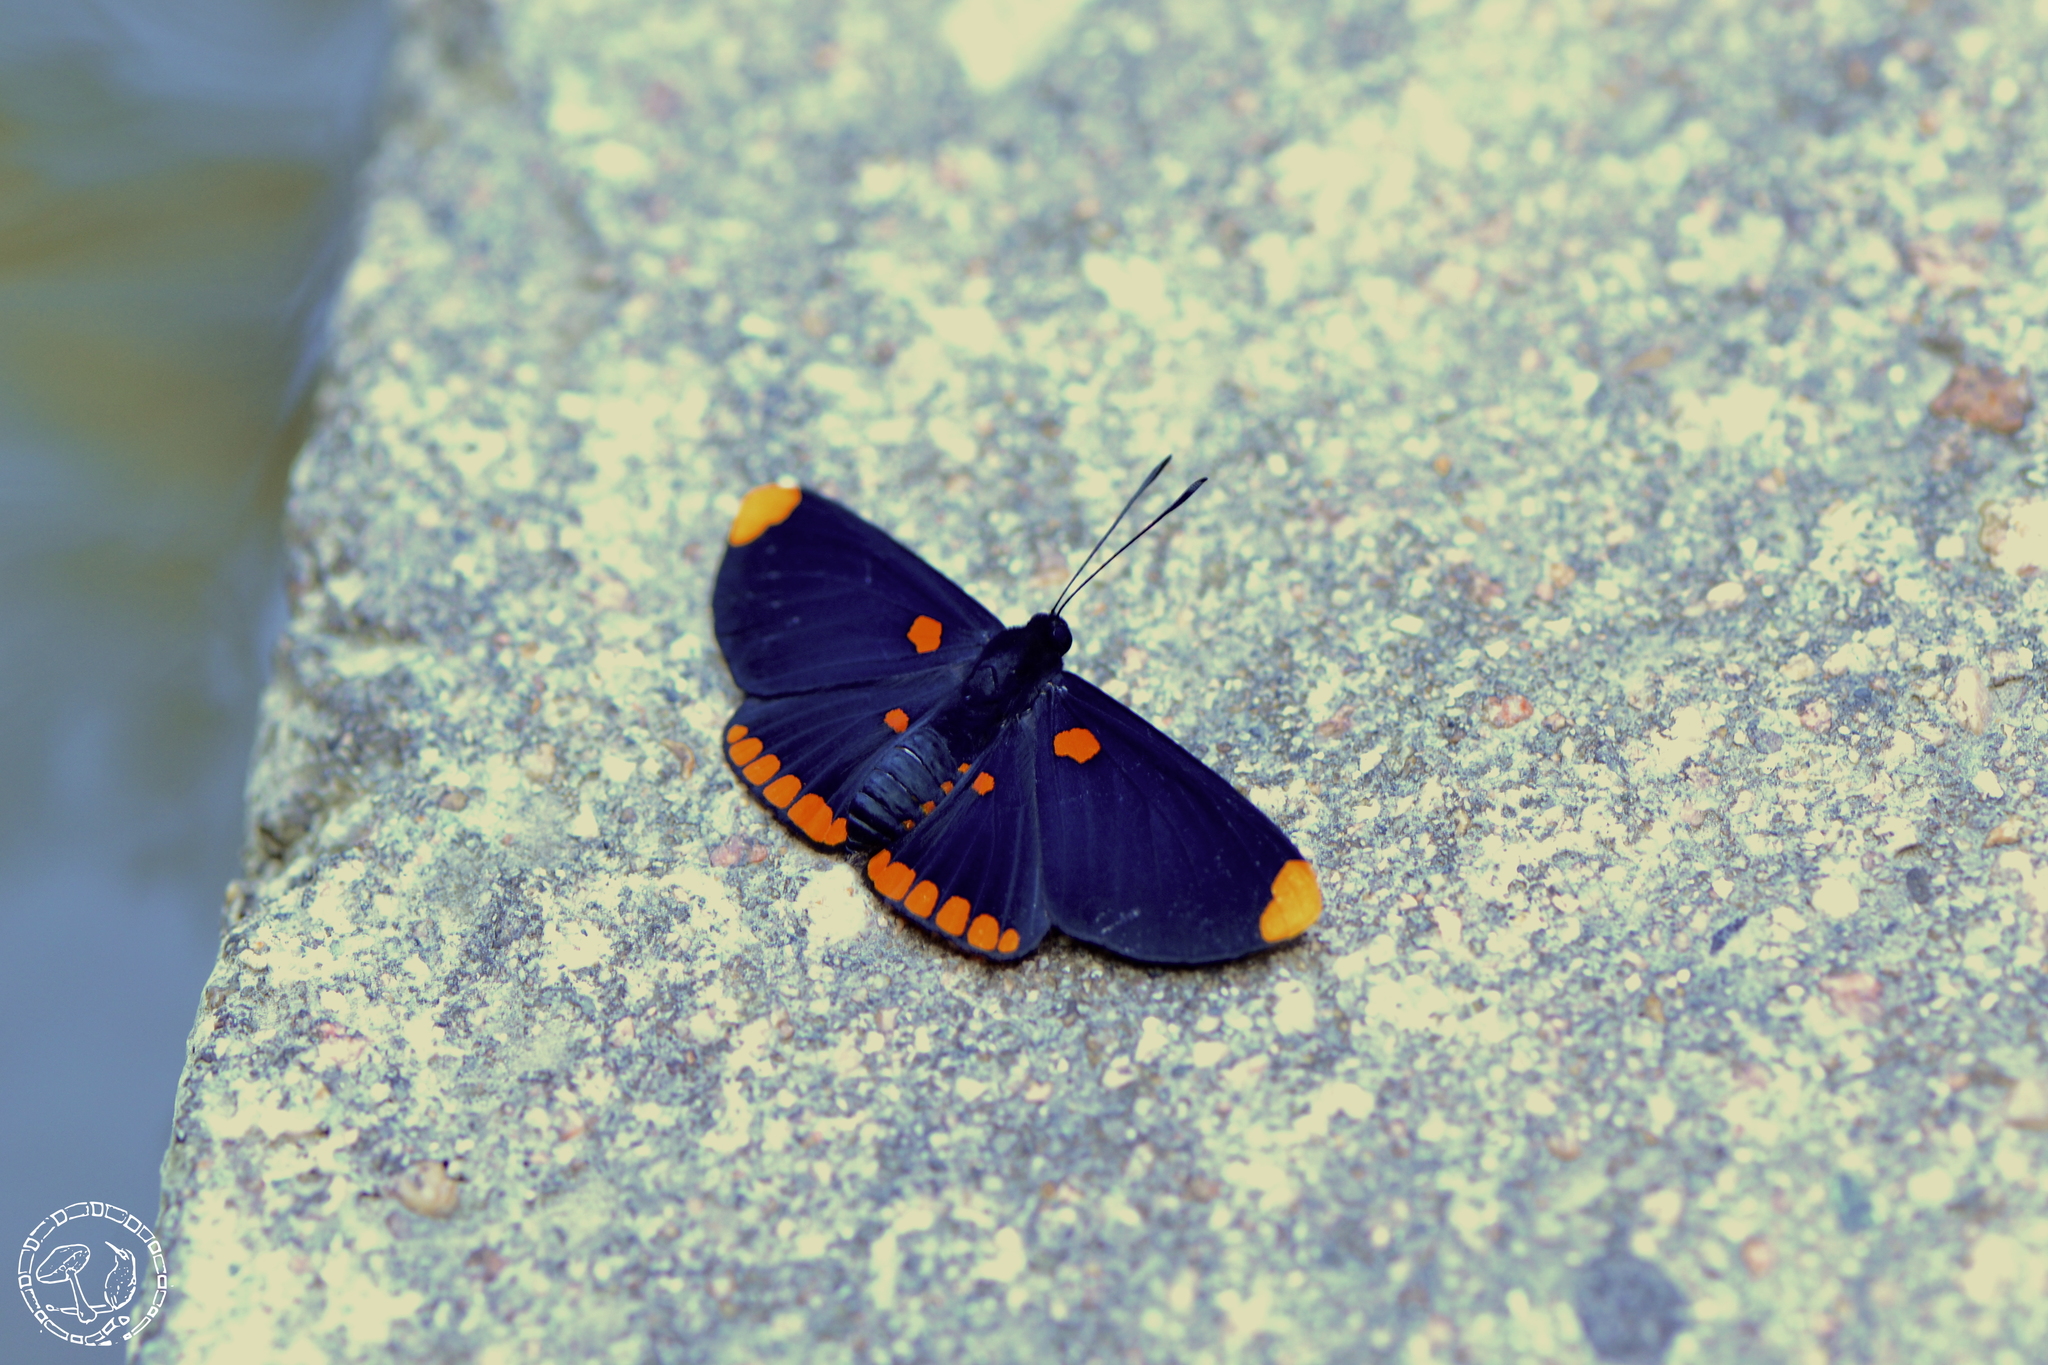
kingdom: Animalia
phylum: Arthropoda
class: Insecta
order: Lepidoptera
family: Lycaenidae
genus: Melanis
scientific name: Melanis pixe
